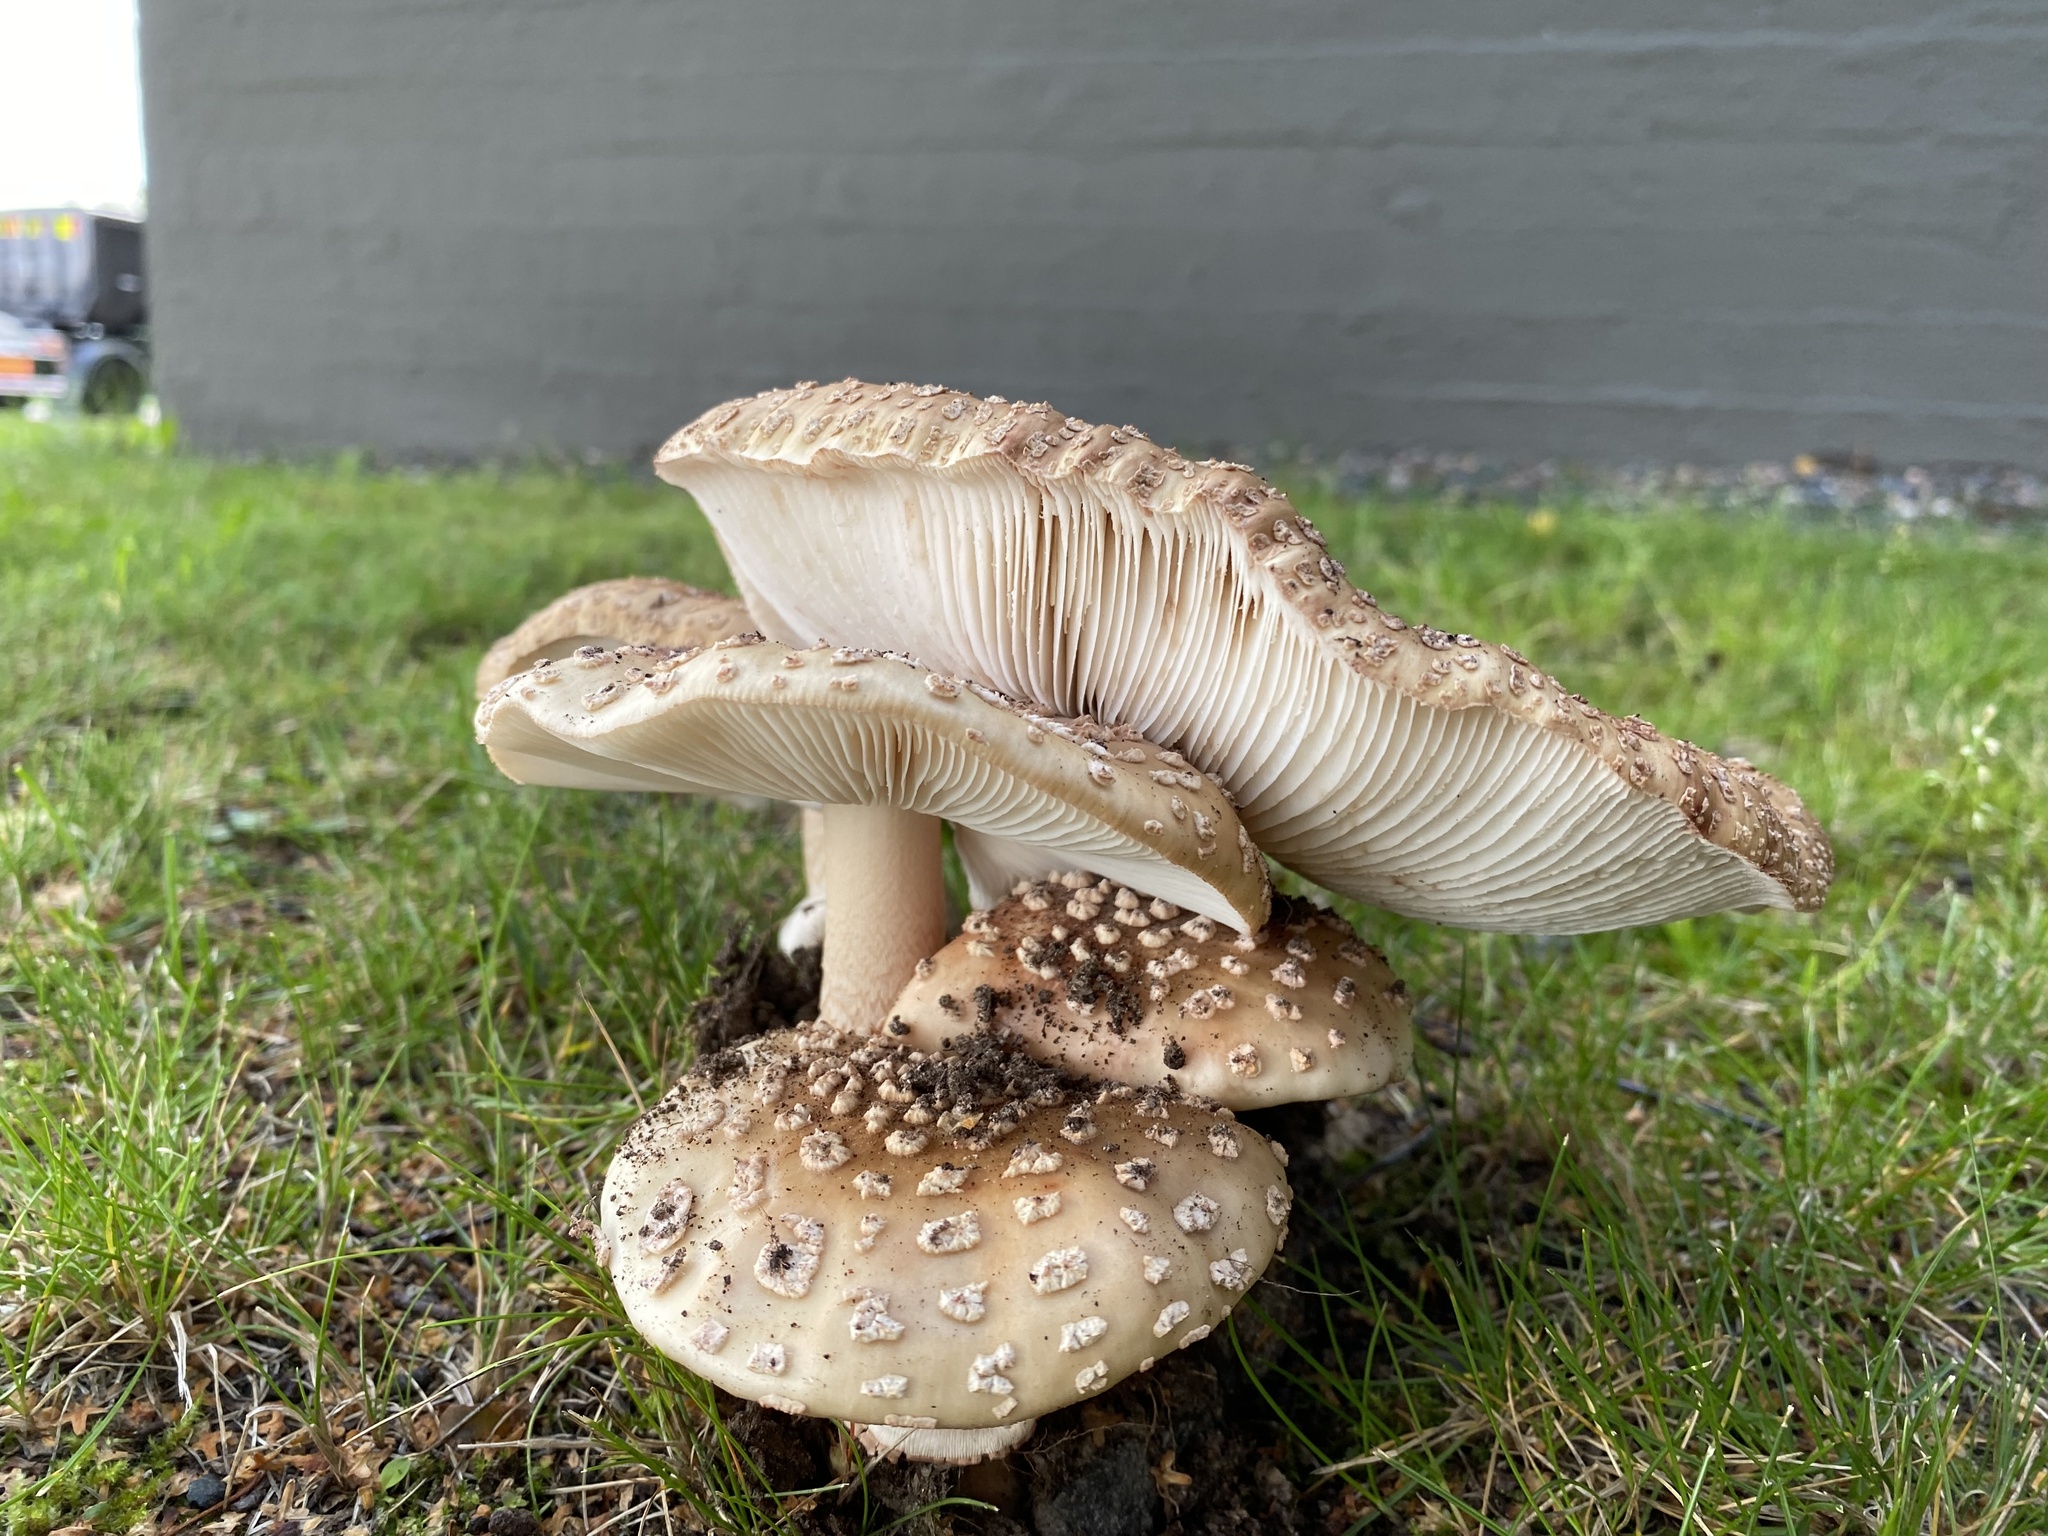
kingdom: Fungi
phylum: Basidiomycota
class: Agaricomycetes
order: Agaricales
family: Amanitaceae
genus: Amanita
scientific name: Amanita rubescens
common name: Blusher
